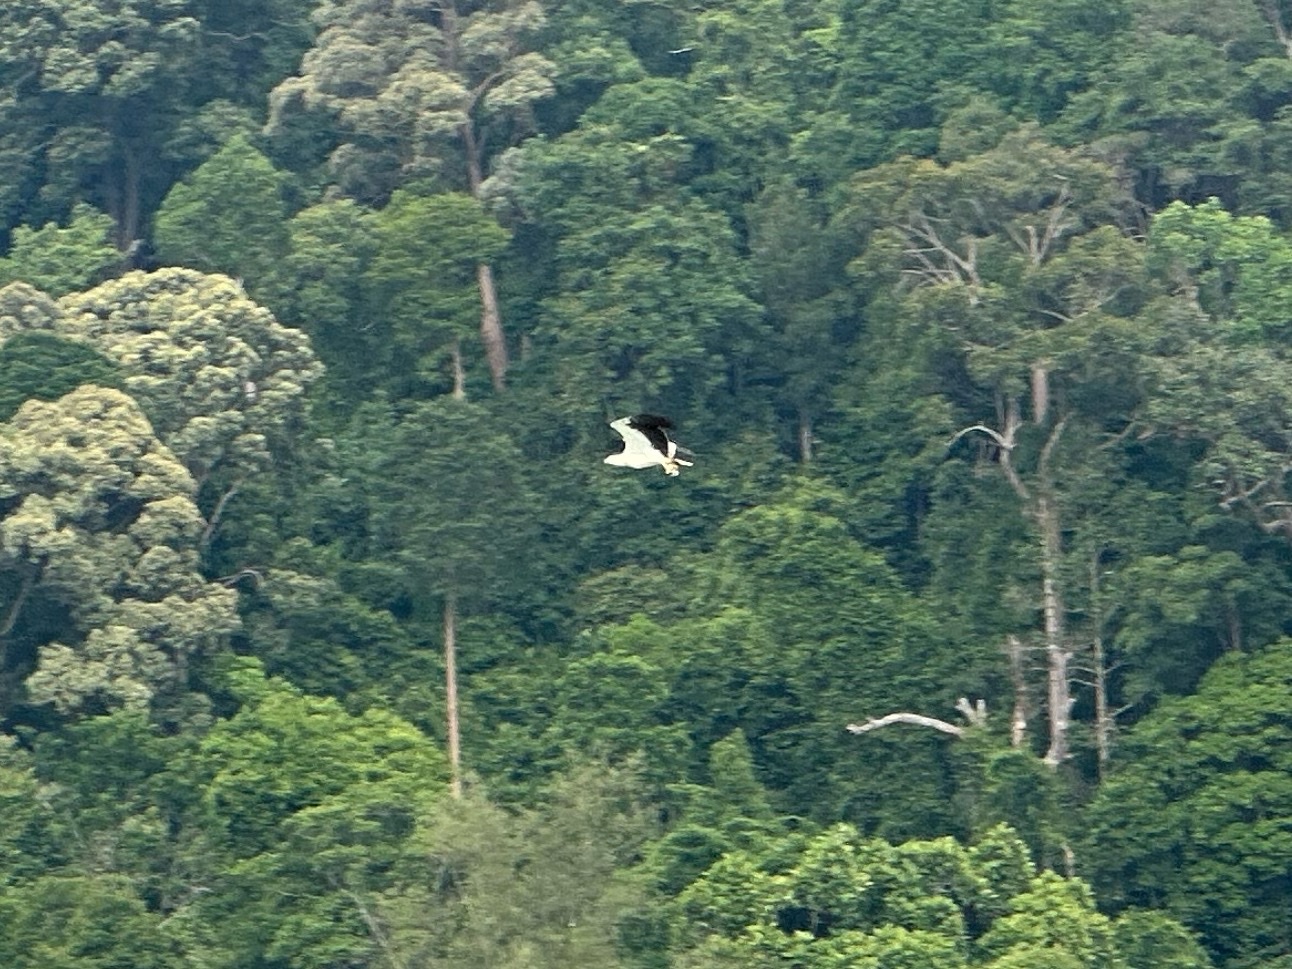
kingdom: Animalia
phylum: Chordata
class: Aves
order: Accipitriformes
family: Accipitridae
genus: Haliaeetus
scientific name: Haliaeetus leucogaster
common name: White-bellied sea eagle
